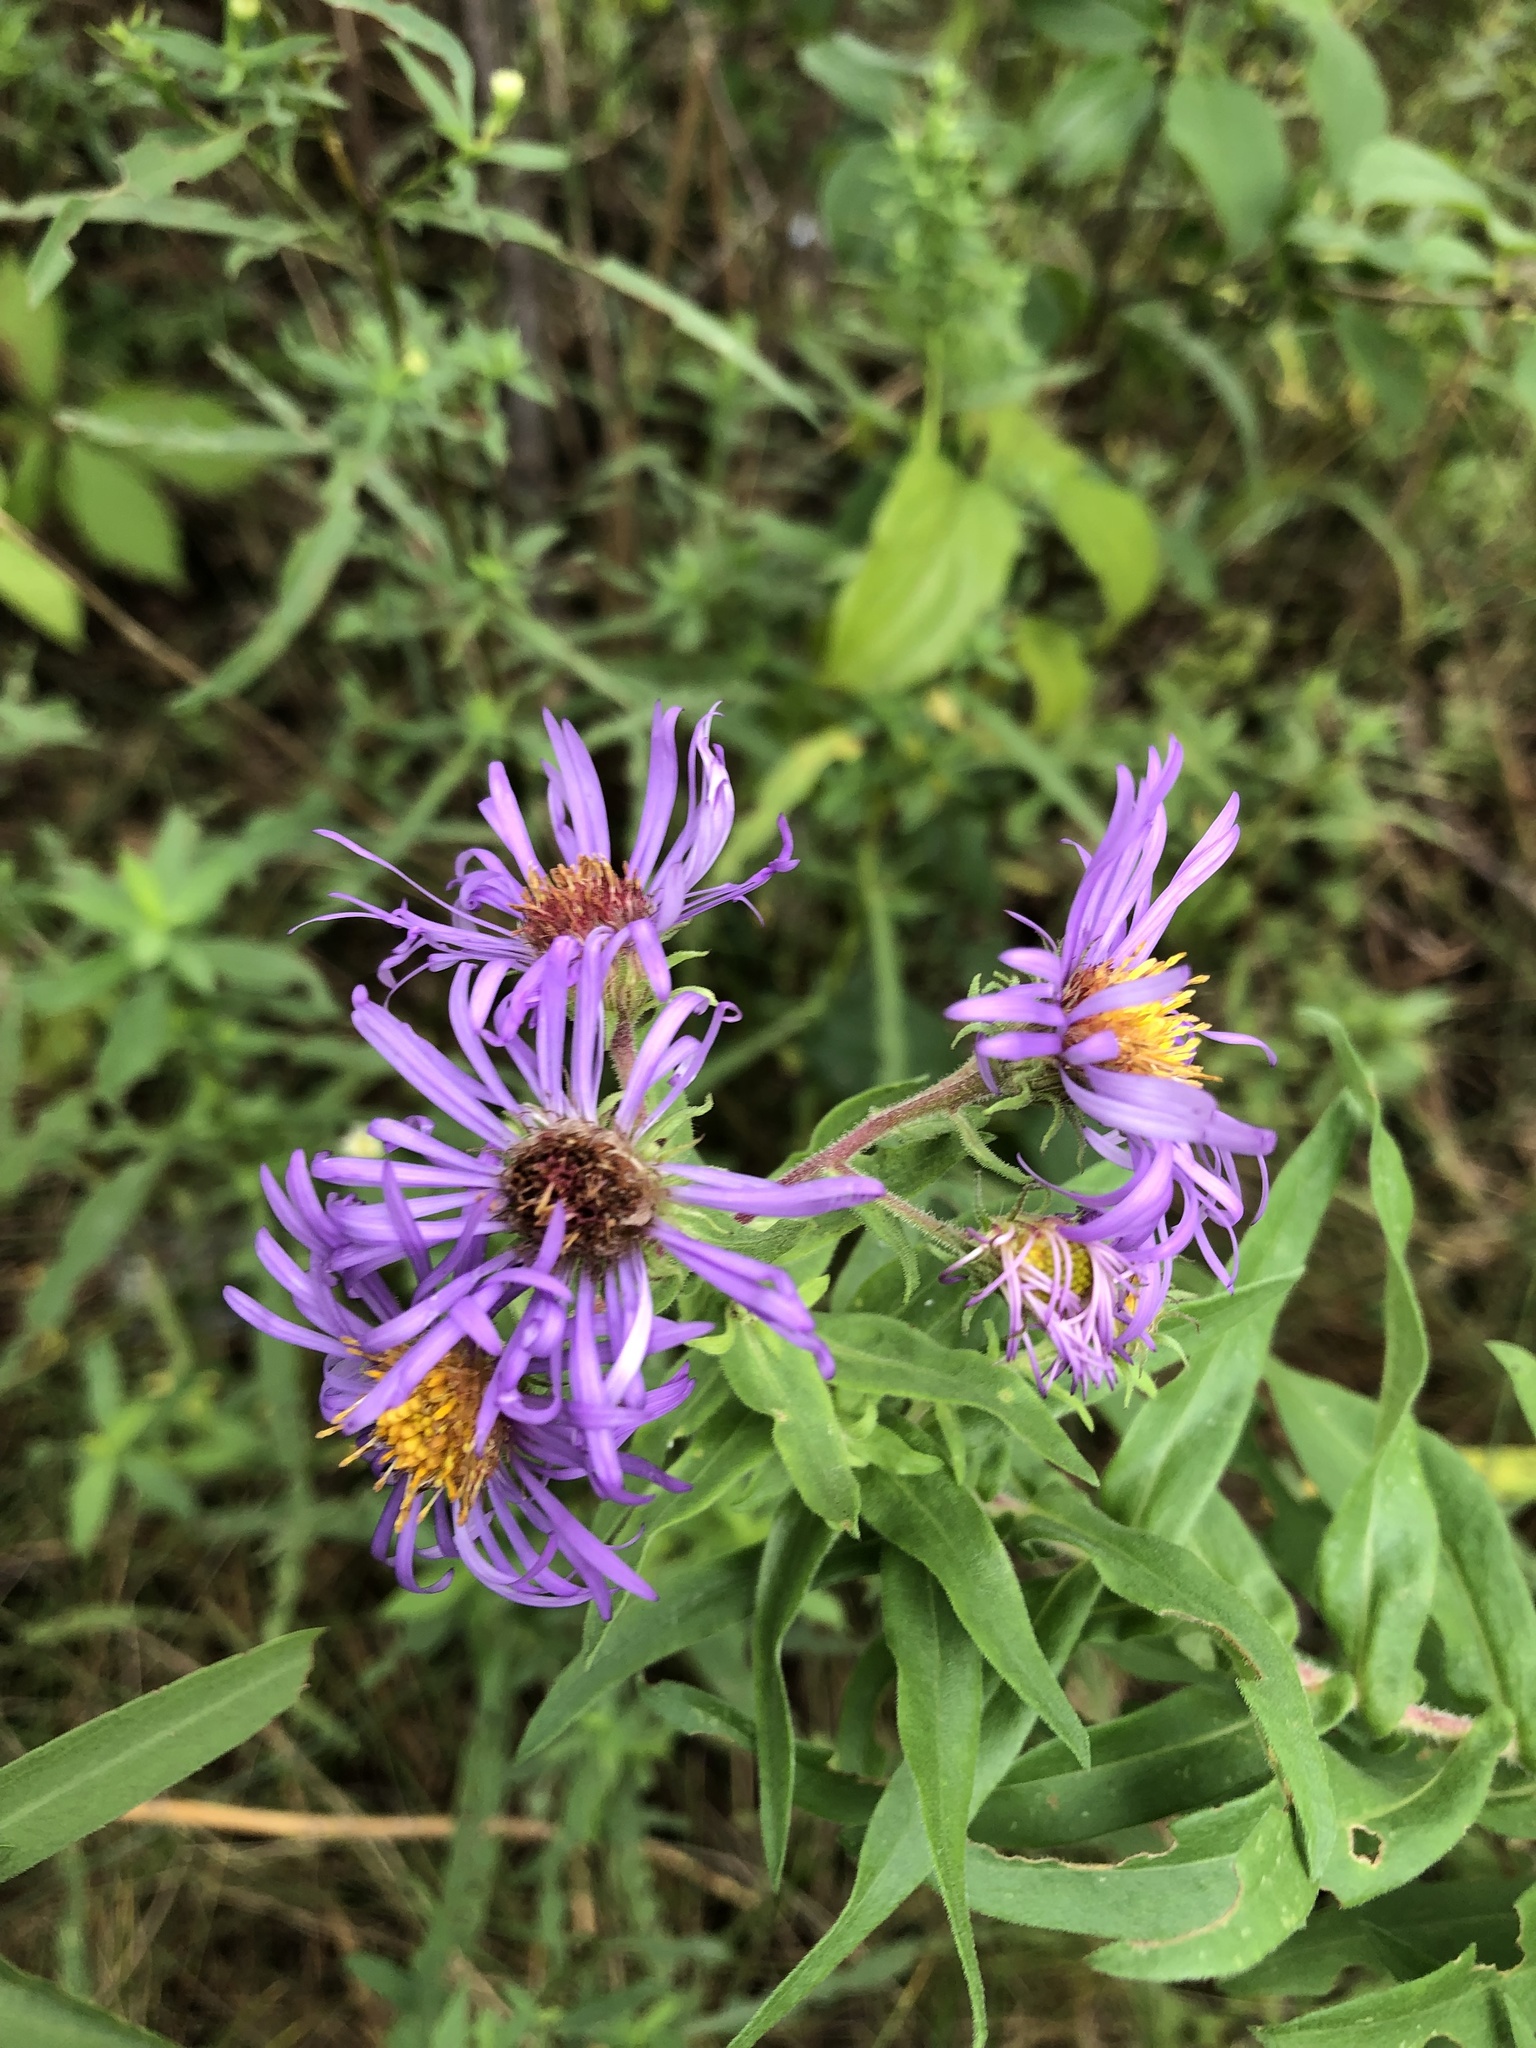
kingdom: Plantae
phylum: Tracheophyta
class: Magnoliopsida
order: Asterales
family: Asteraceae
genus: Symphyotrichum
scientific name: Symphyotrichum novae-angliae
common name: Michaelmas daisy
